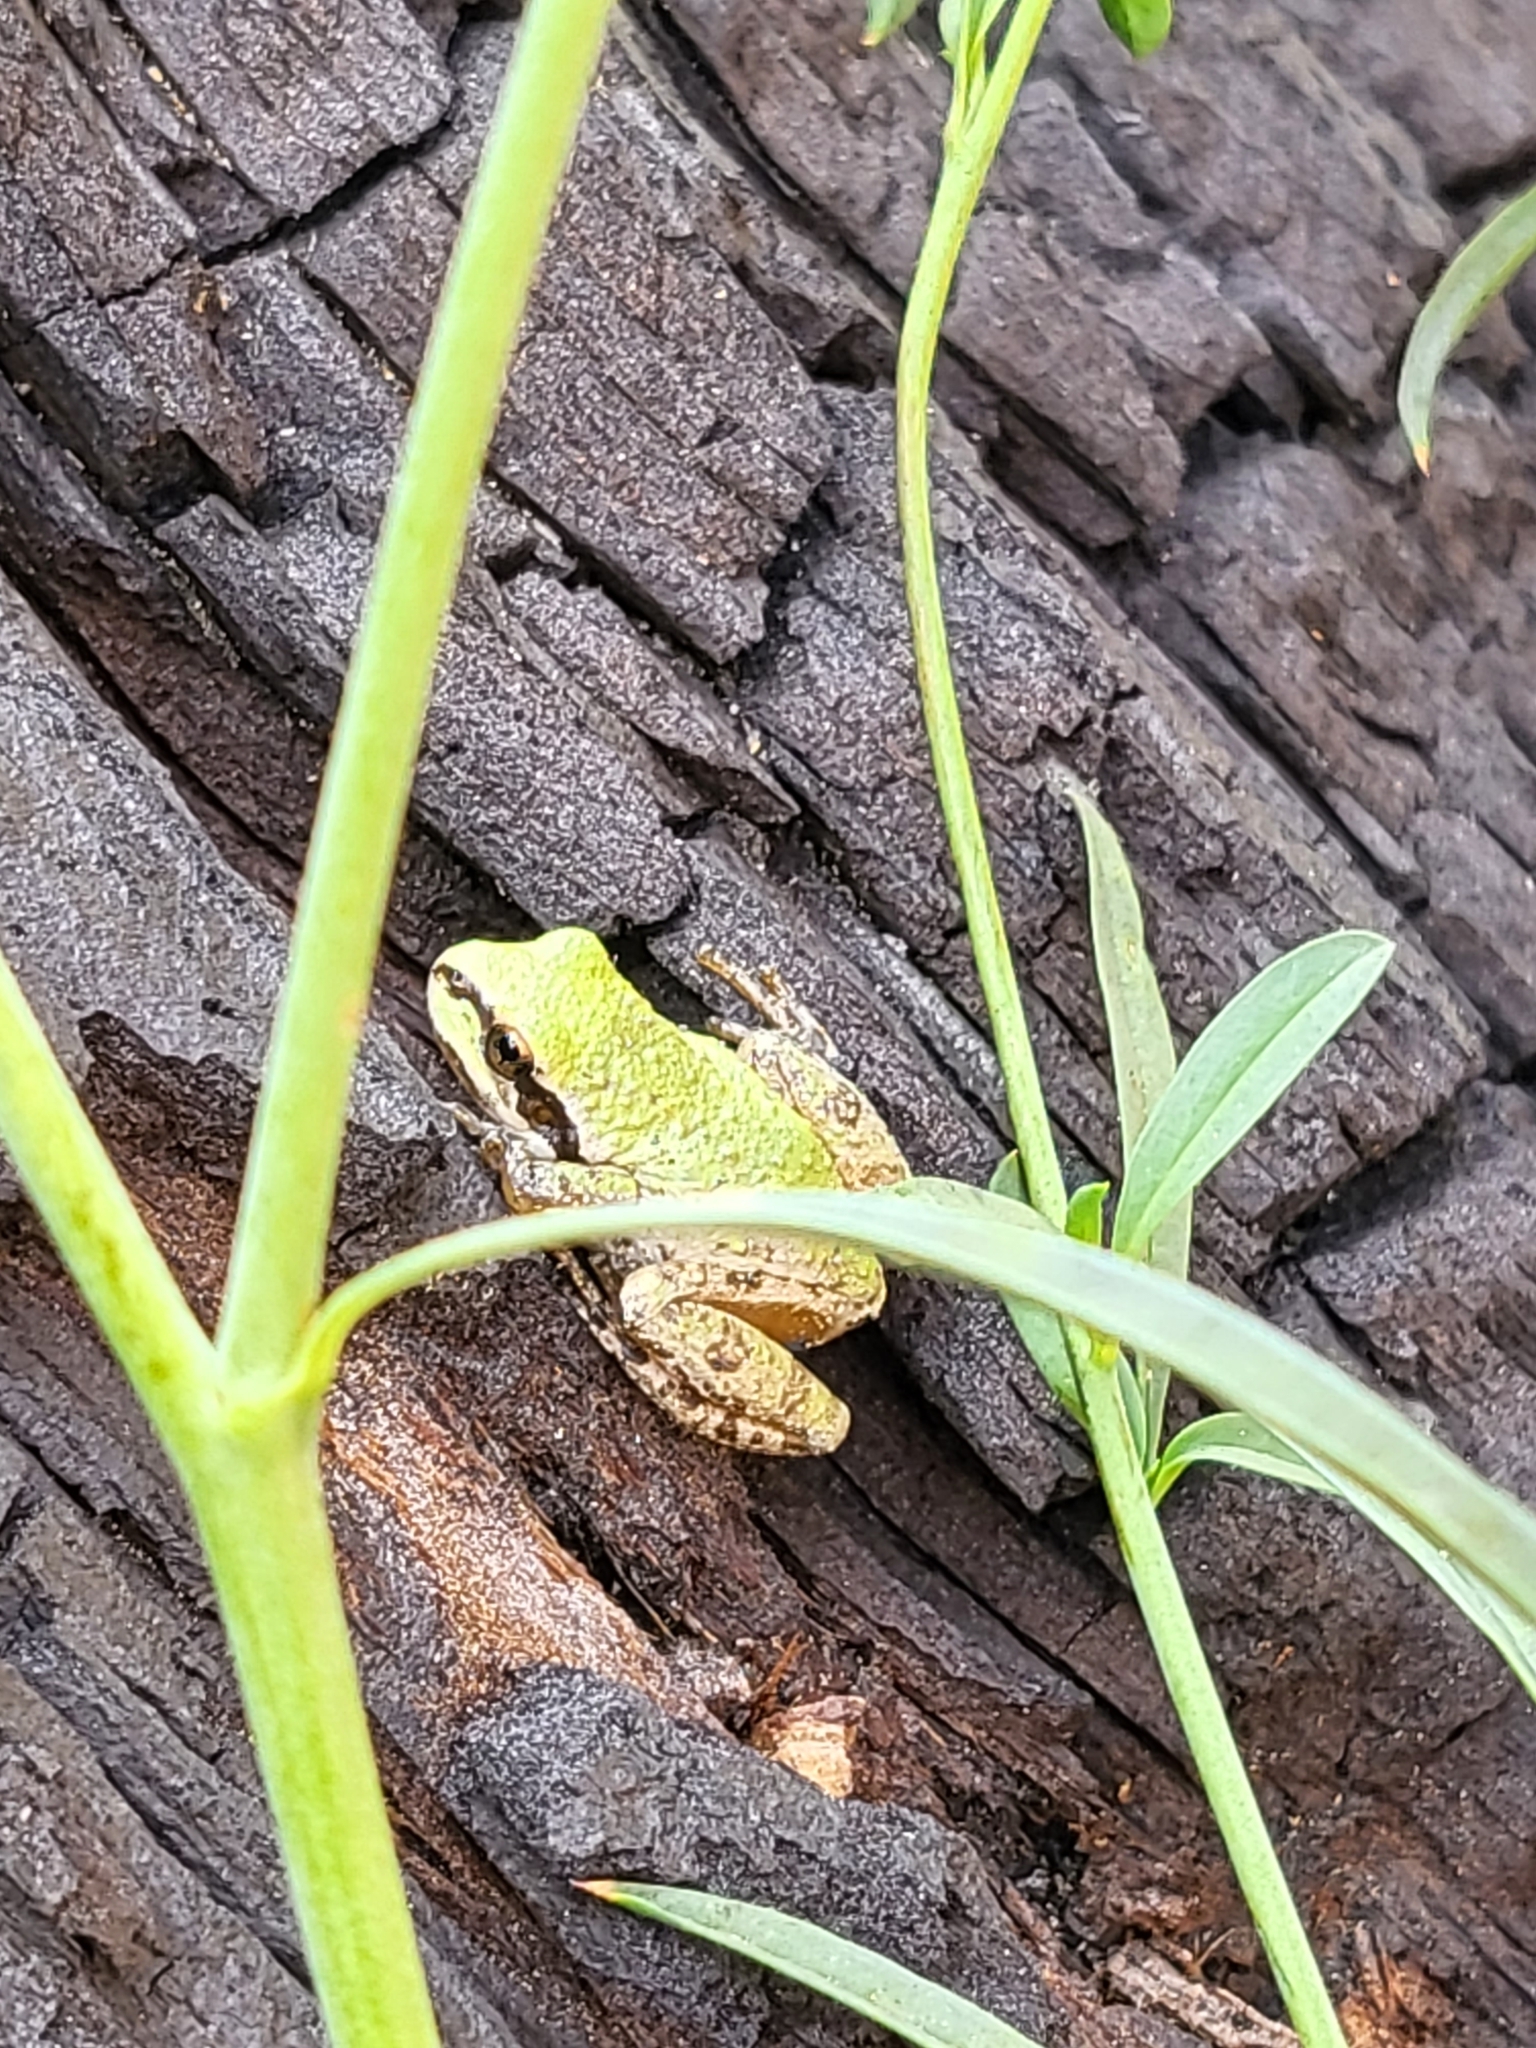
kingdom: Animalia
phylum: Chordata
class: Amphibia
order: Anura
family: Hylidae
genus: Pseudacris
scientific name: Pseudacris regilla
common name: Pacific chorus frog
